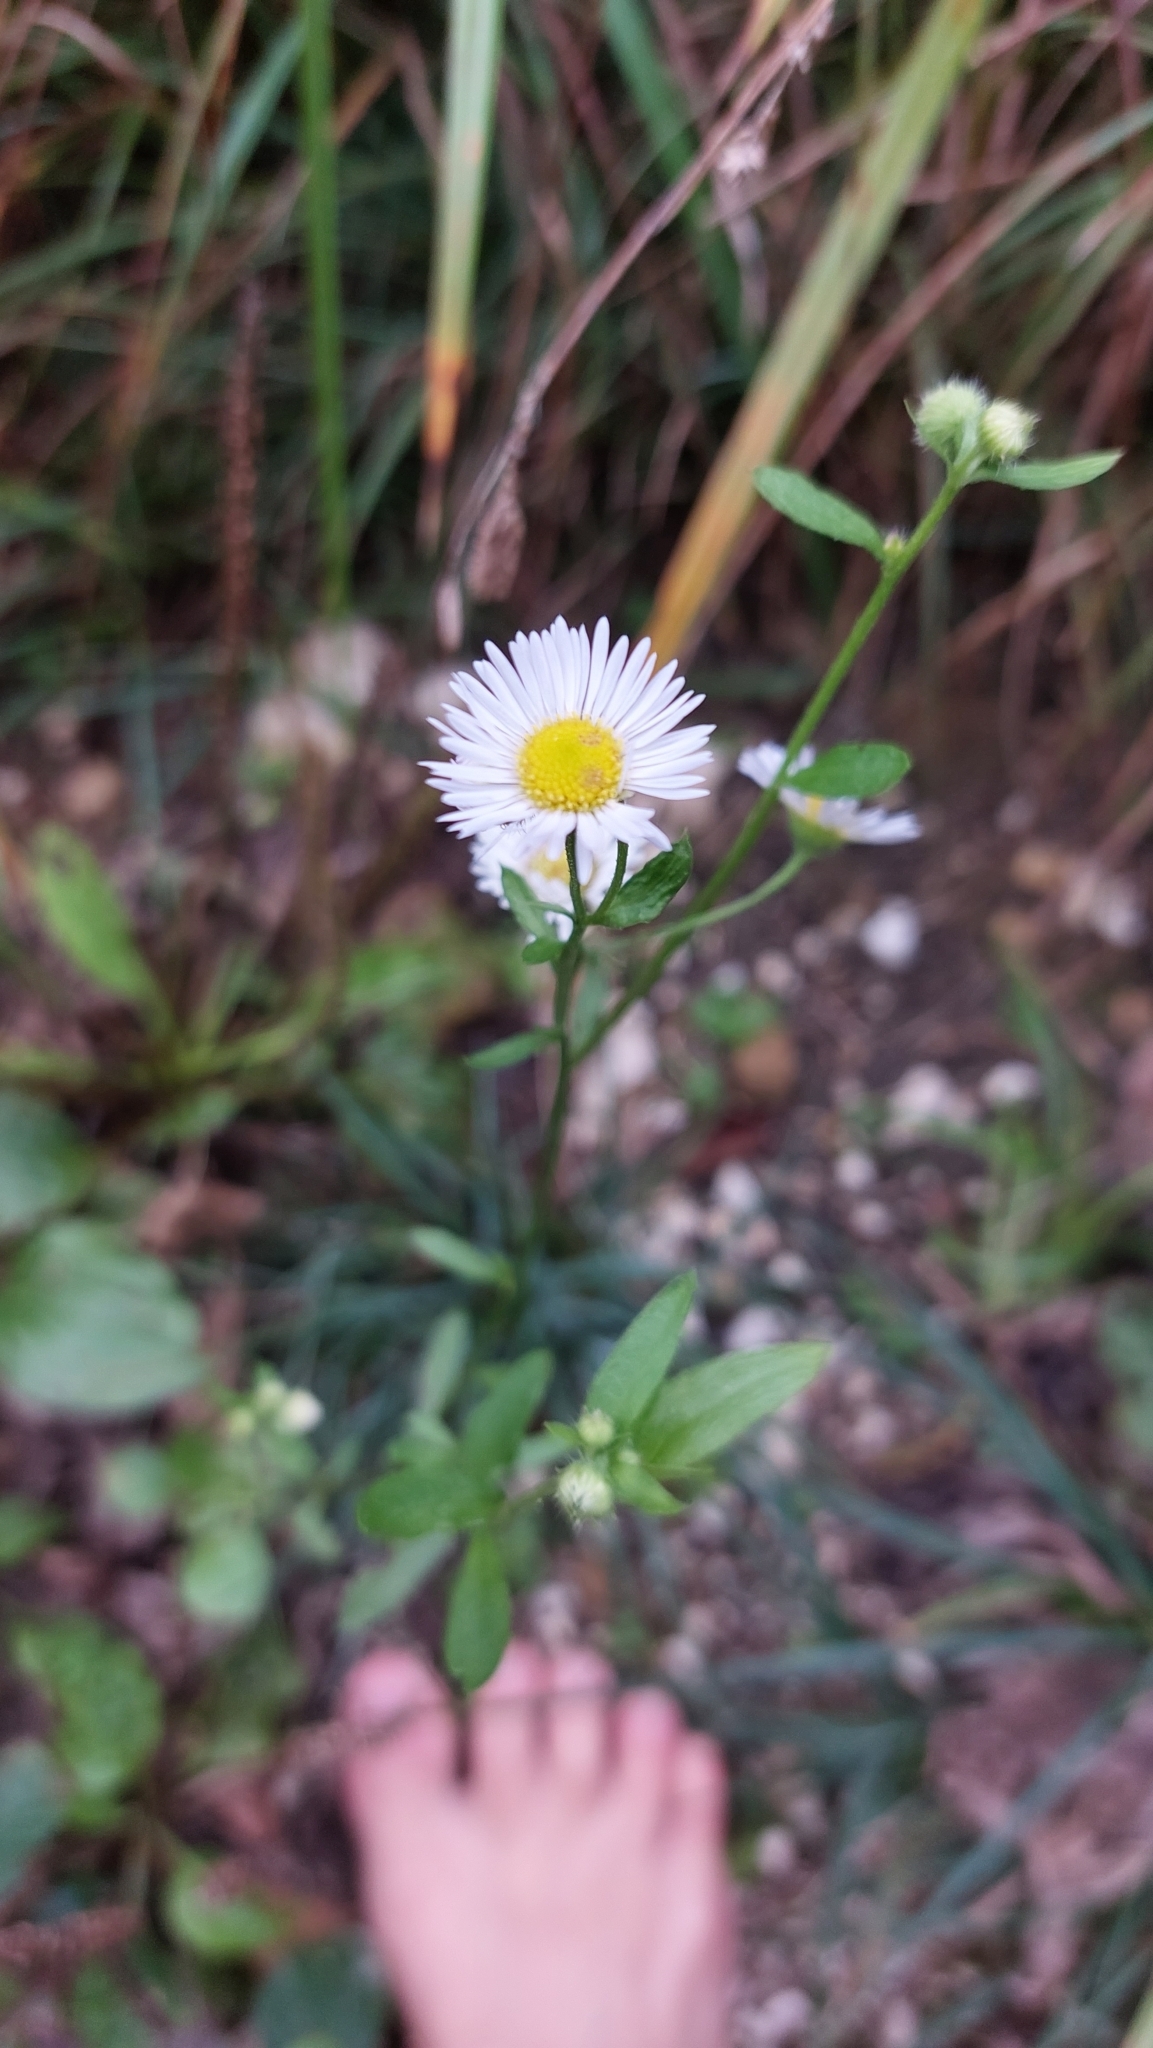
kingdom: Plantae
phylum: Tracheophyta
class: Magnoliopsida
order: Asterales
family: Asteraceae
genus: Erigeron
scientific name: Erigeron annuus
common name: Tall fleabane
